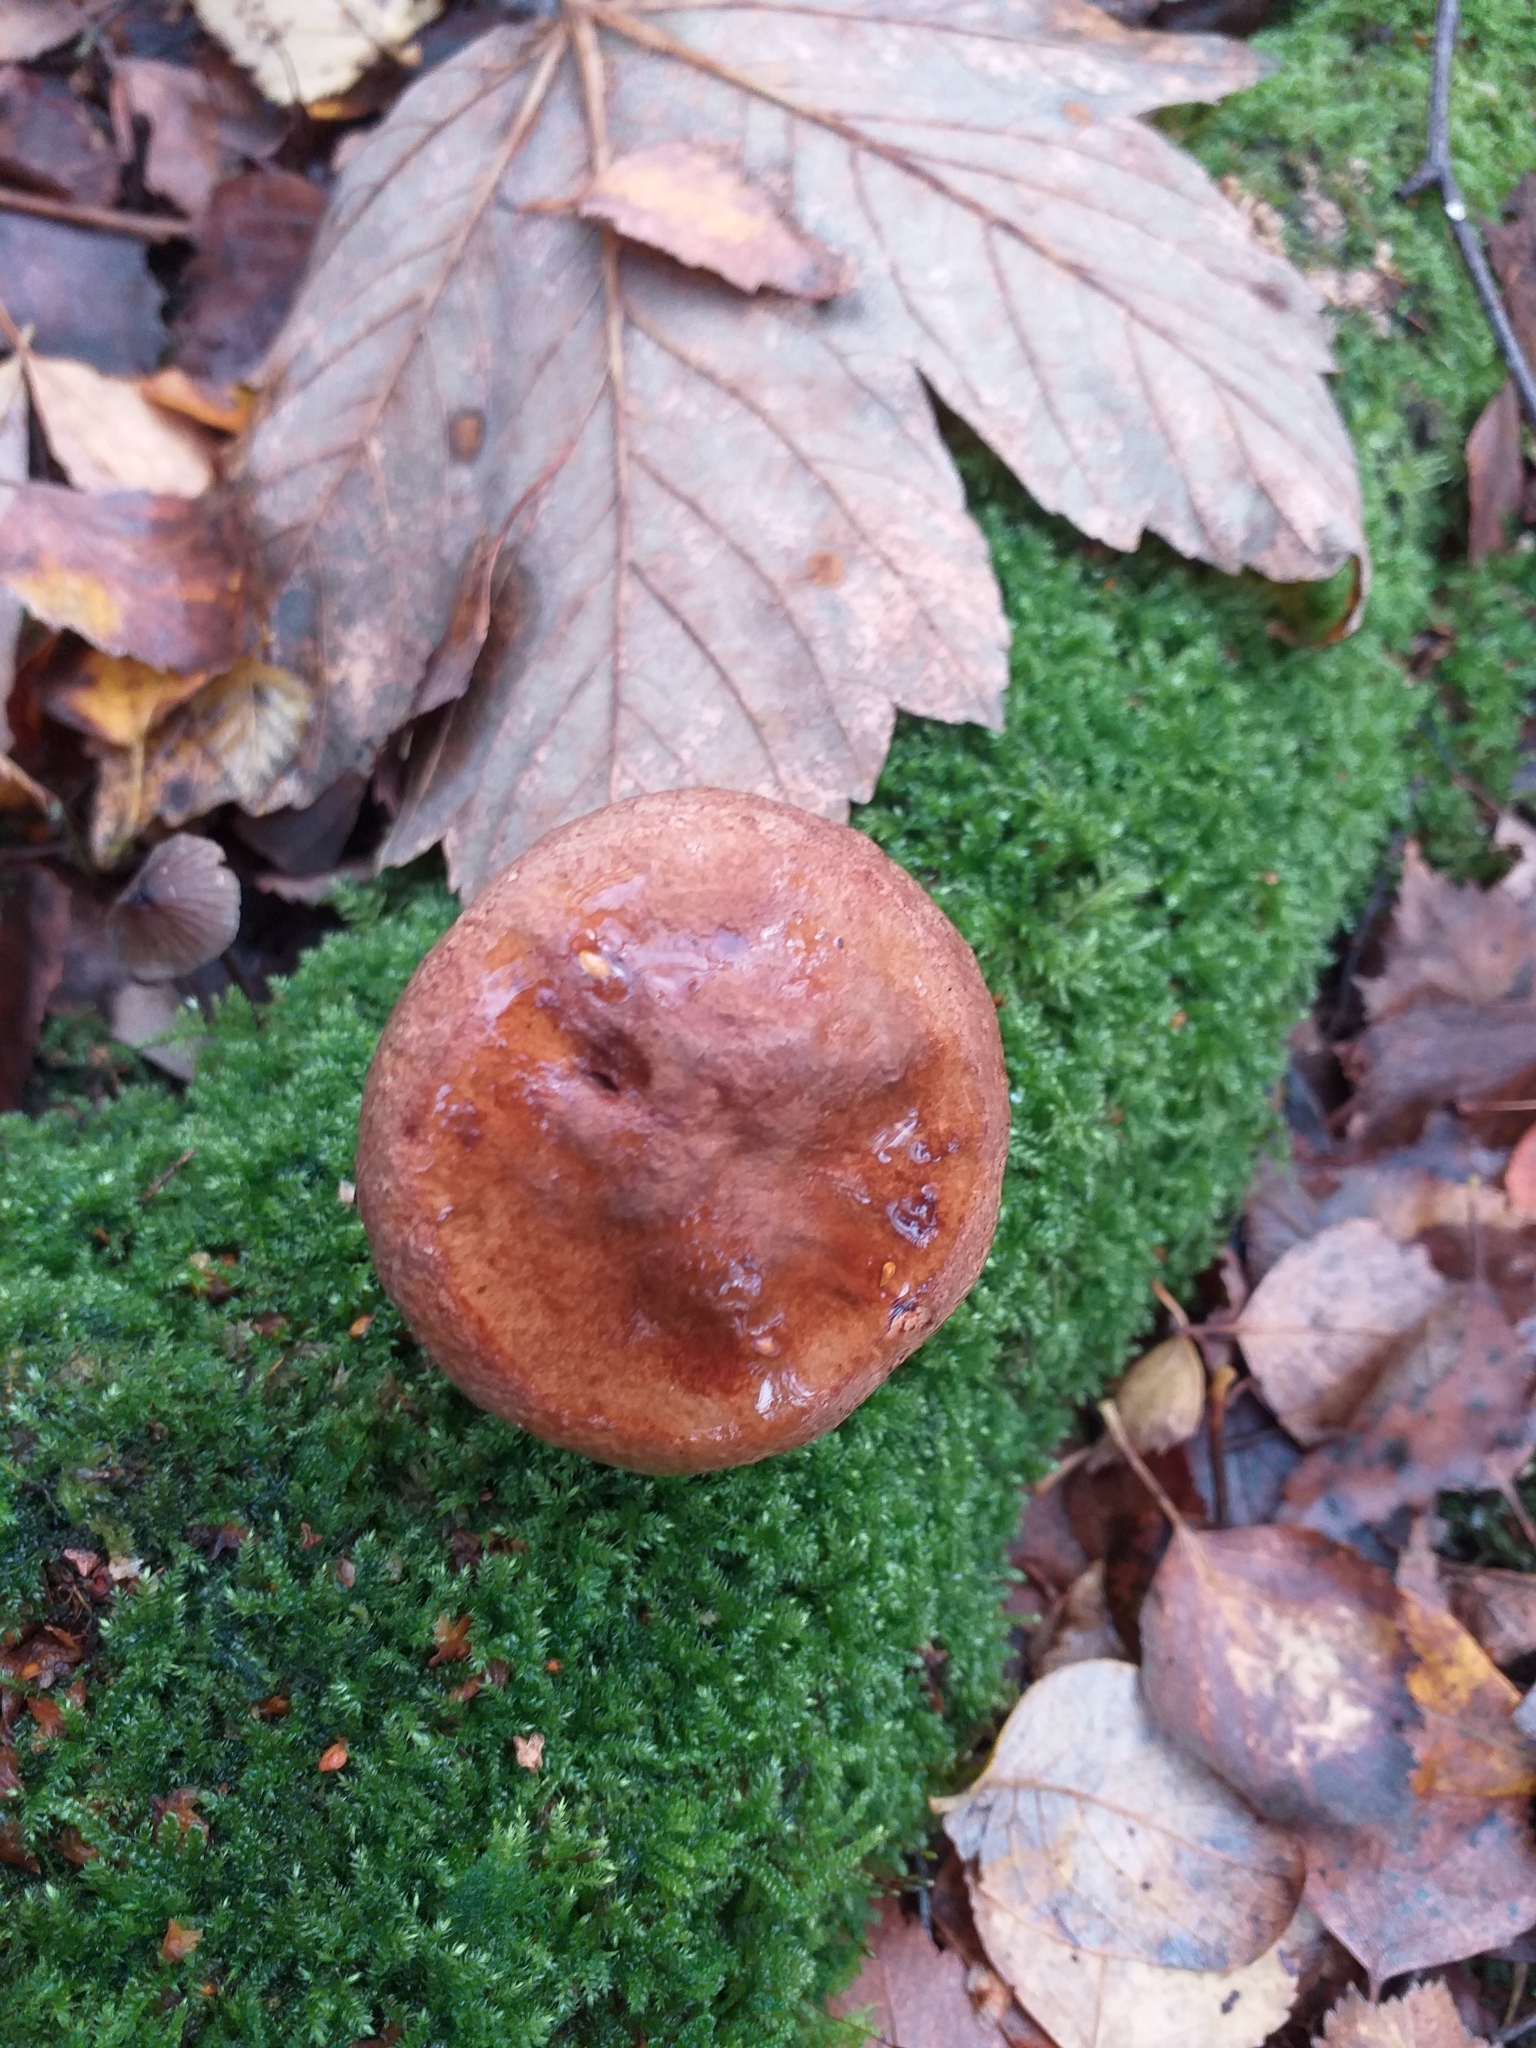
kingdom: Fungi
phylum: Basidiomycota
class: Agaricomycetes
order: Boletales
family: Paxillaceae
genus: Paxillus
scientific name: Paxillus involutus
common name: Brown roll rim
